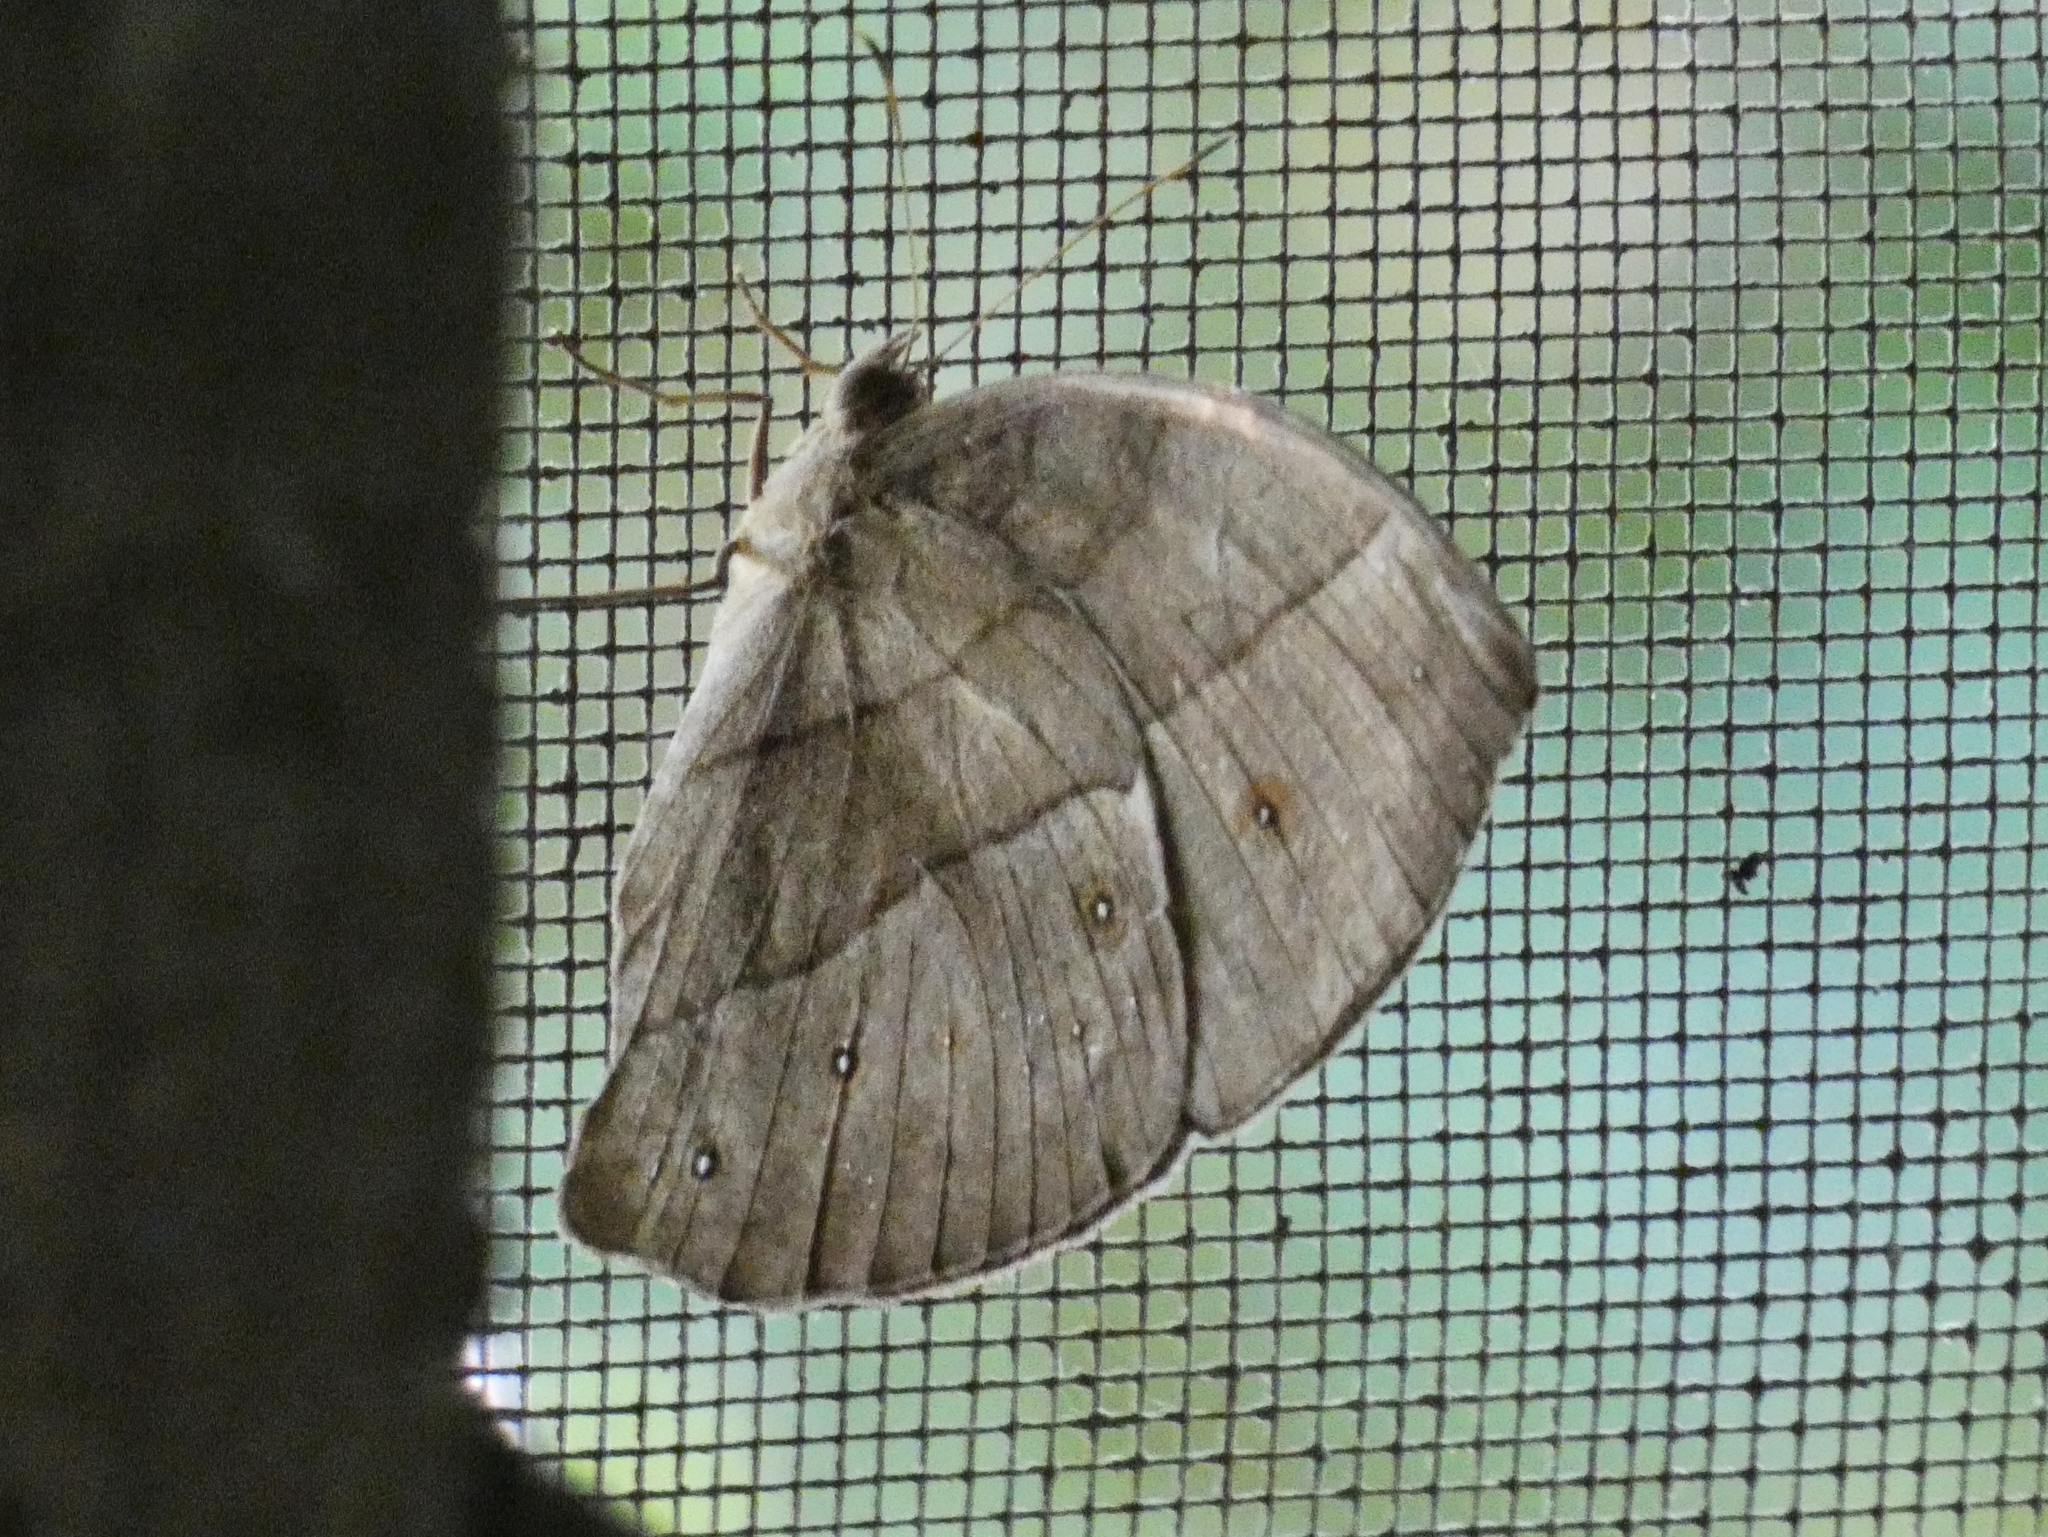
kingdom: Animalia
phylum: Arthropoda
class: Insecta
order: Lepidoptera
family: Nymphalidae
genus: Bicyclus
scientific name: Bicyclus sebetus
